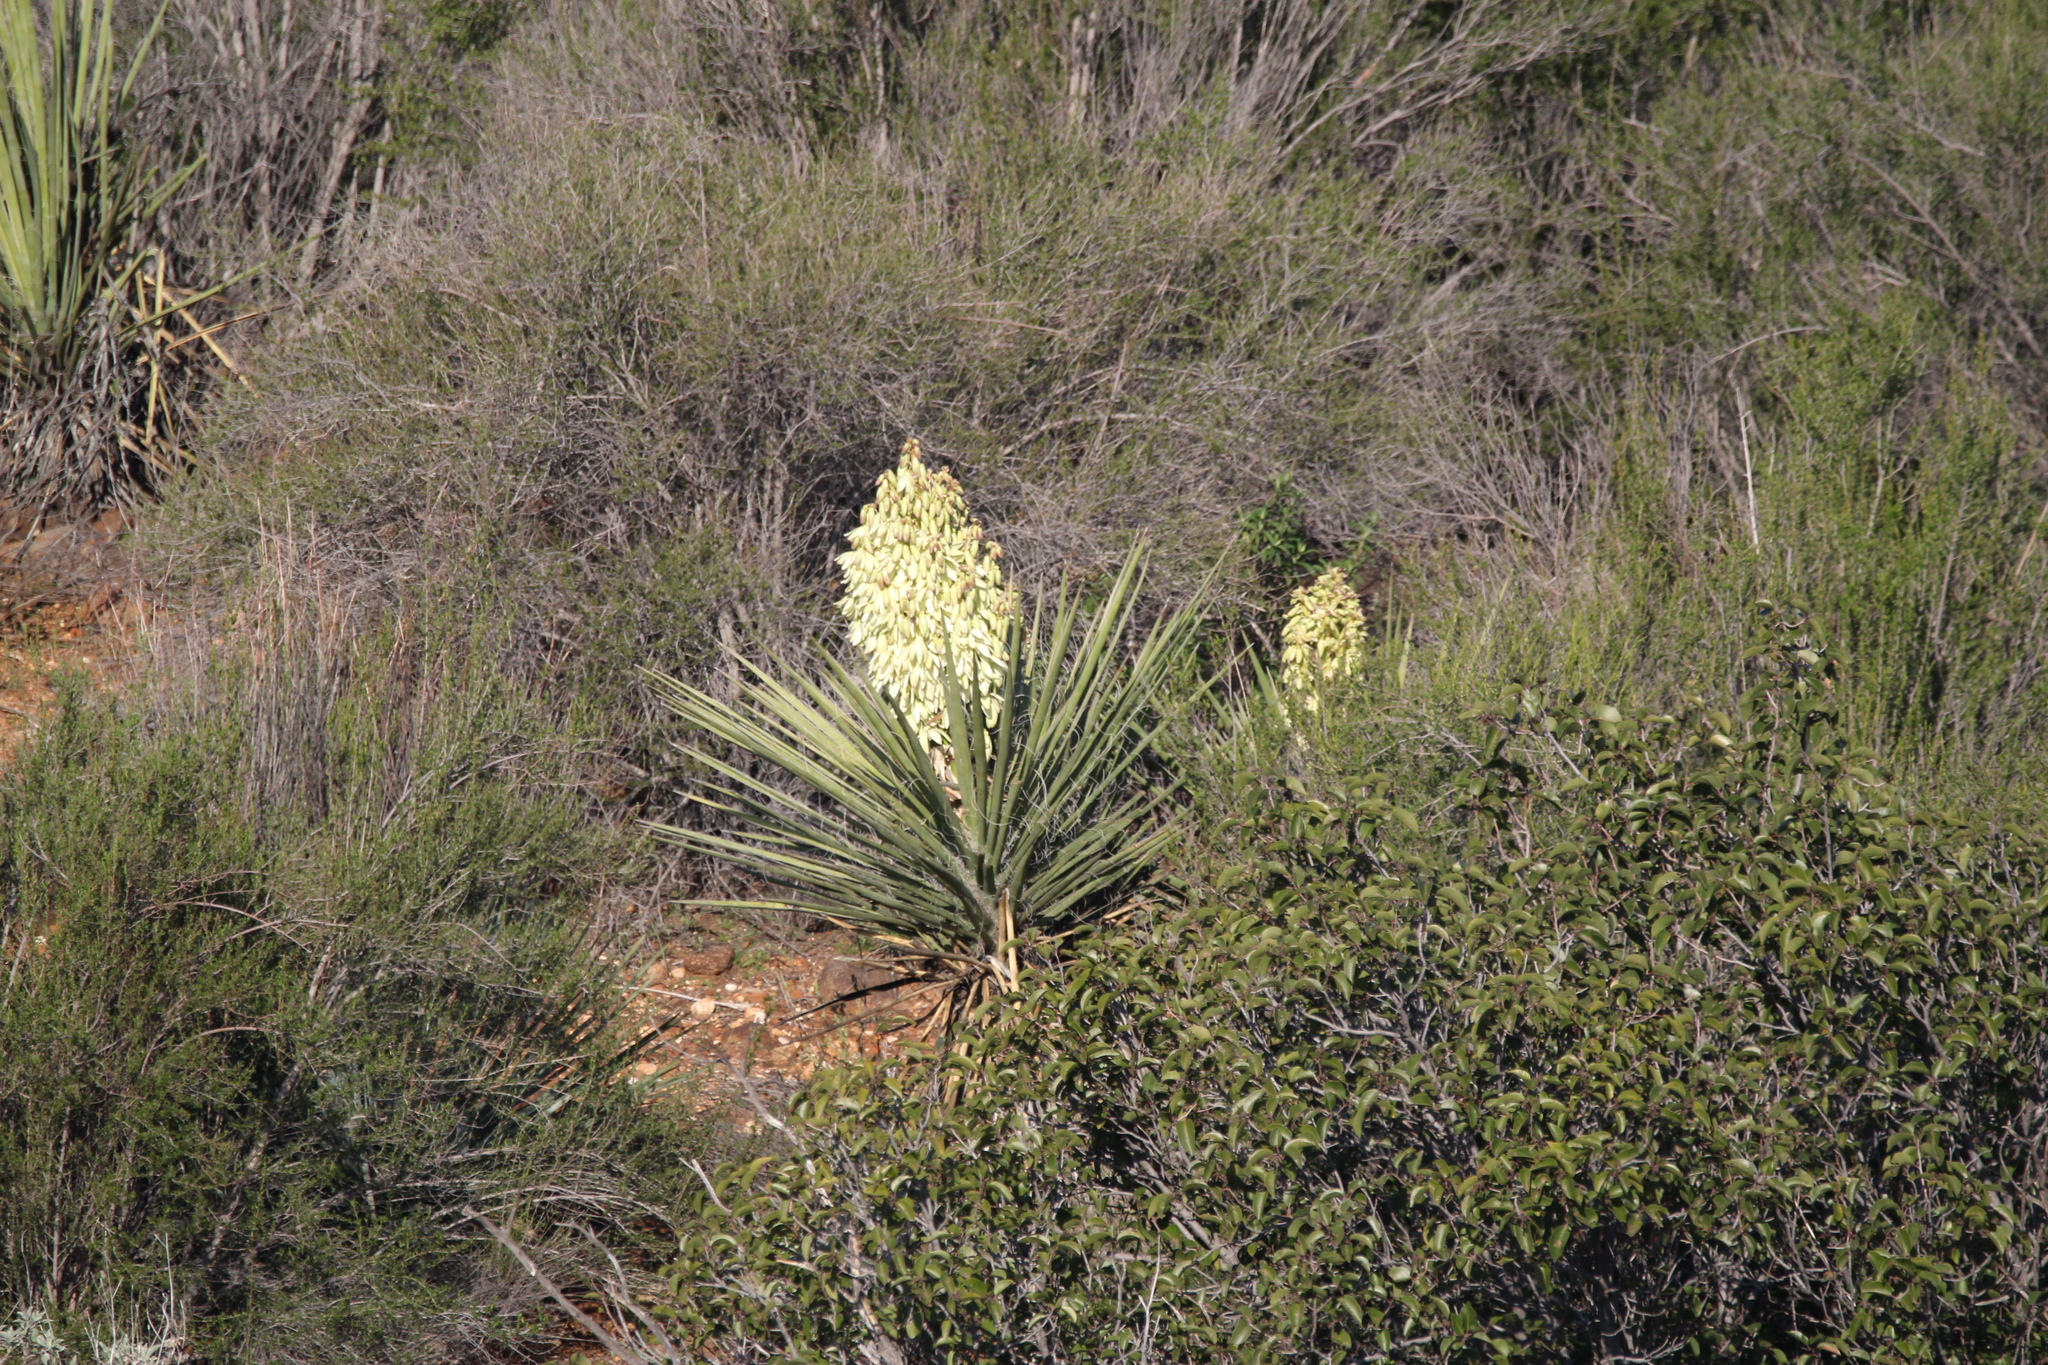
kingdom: Plantae
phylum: Tracheophyta
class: Liliopsida
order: Asparagales
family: Asparagaceae
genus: Yucca
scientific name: Yucca schidigera
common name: Mojave yucca
